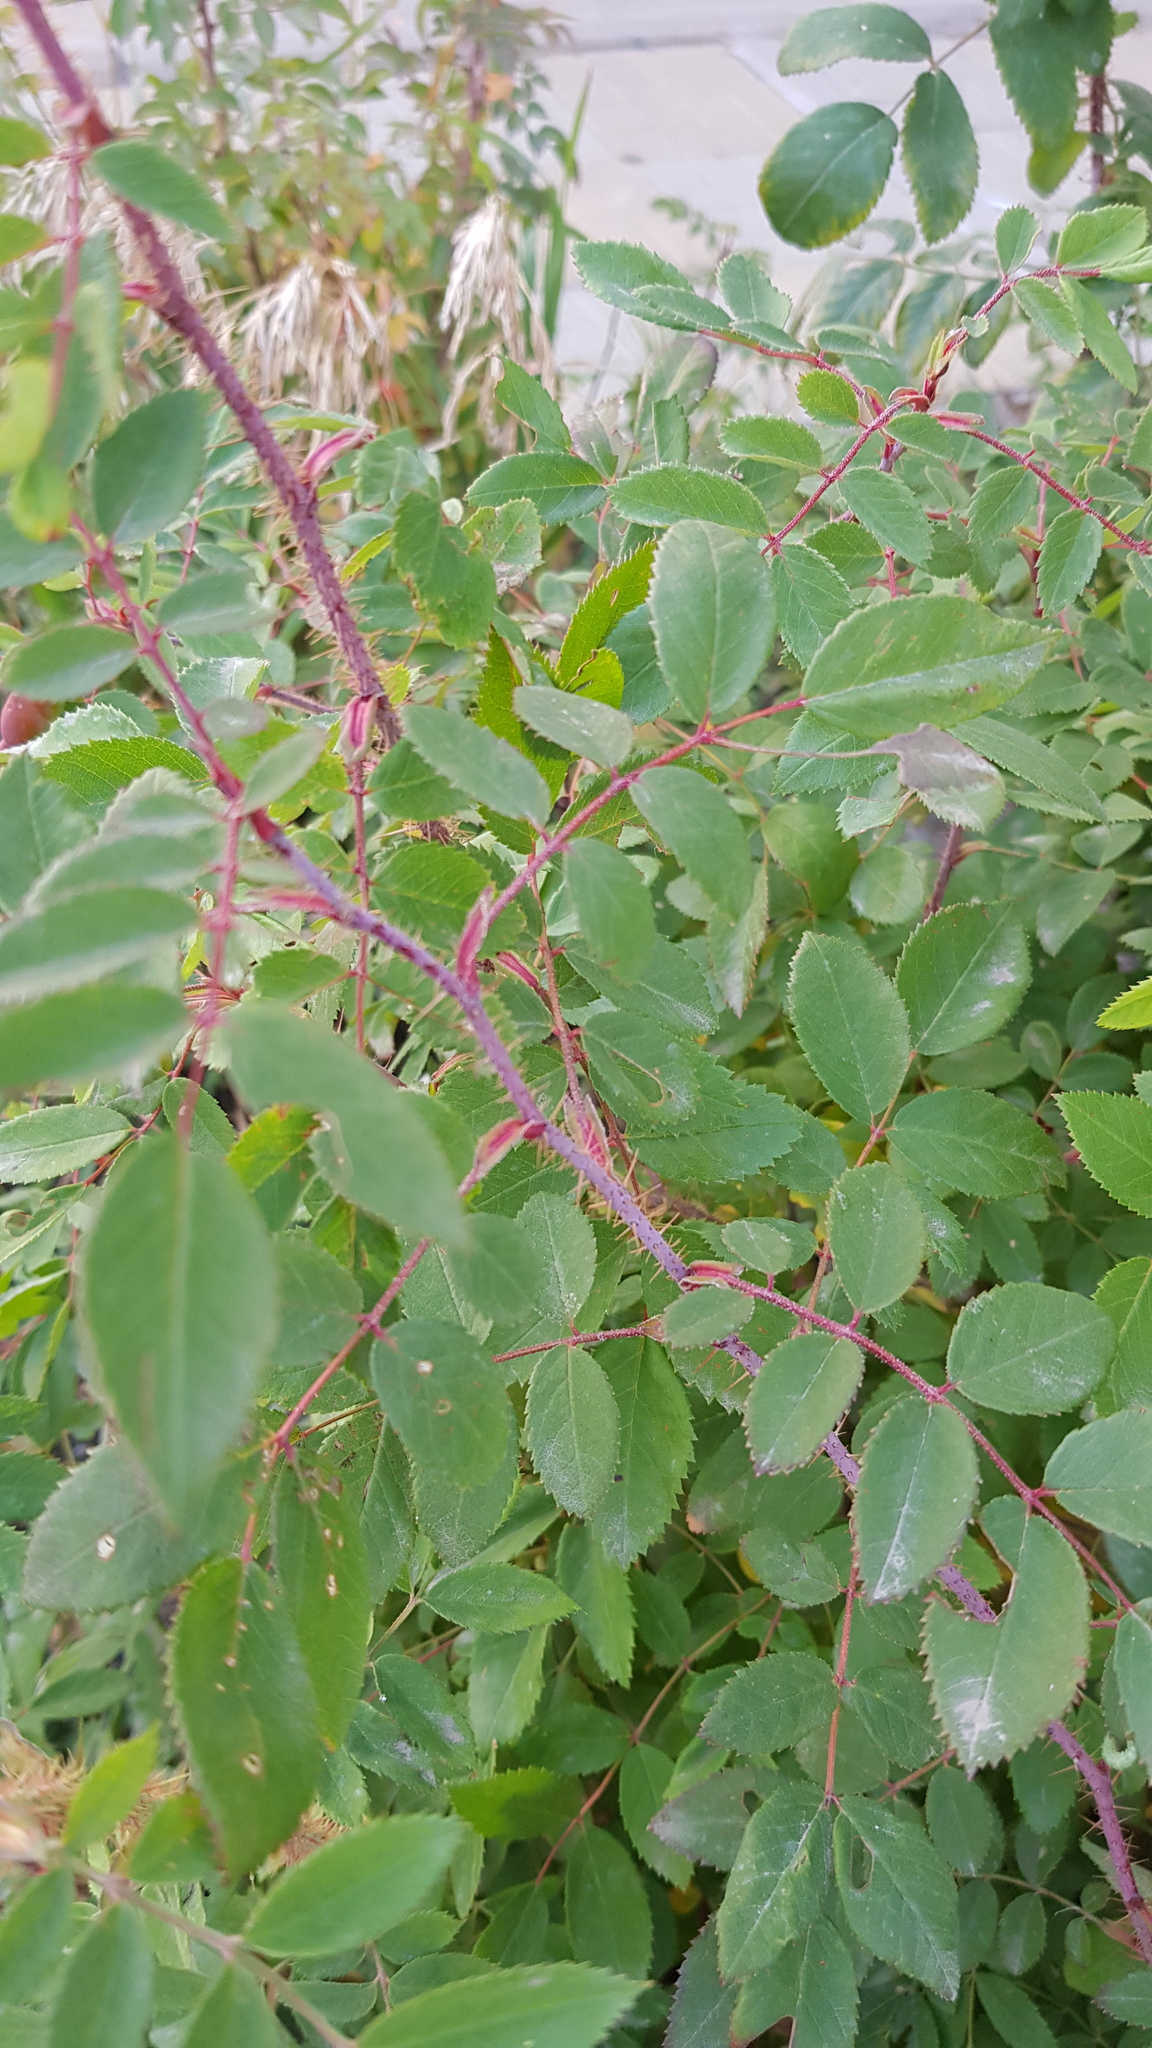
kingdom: Plantae
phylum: Tracheophyta
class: Magnoliopsida
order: Rosales
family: Rosaceae
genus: Rosa
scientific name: Rosa acicularis
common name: Prickly rose
